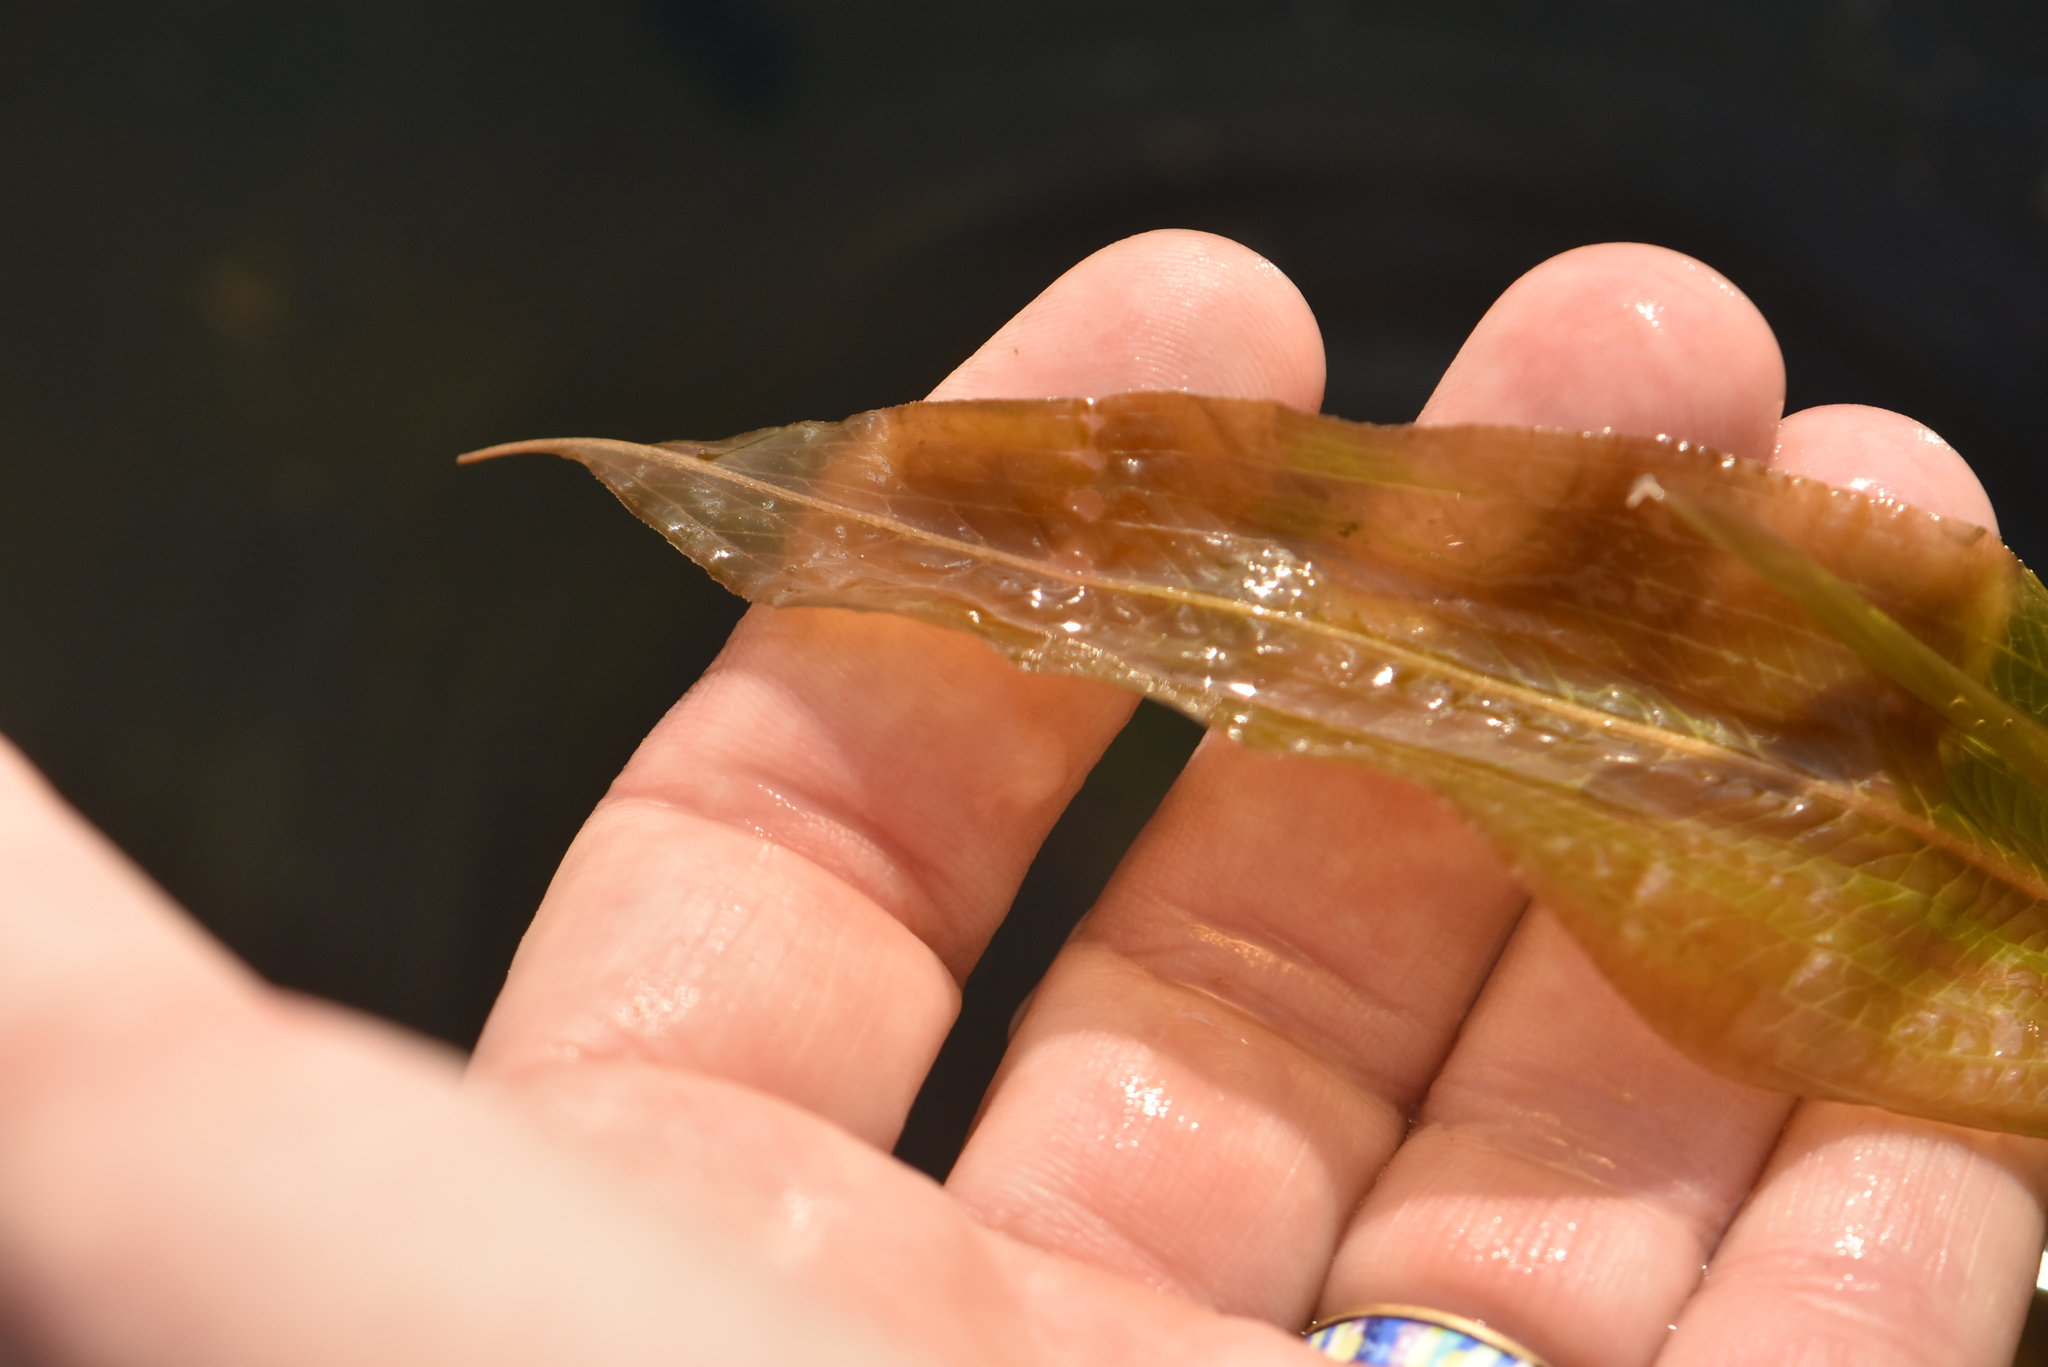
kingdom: Plantae
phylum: Tracheophyta
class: Liliopsida
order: Alismatales
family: Potamogetonaceae
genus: Potamogeton
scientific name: Potamogeton lucens
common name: Shining pondweed
